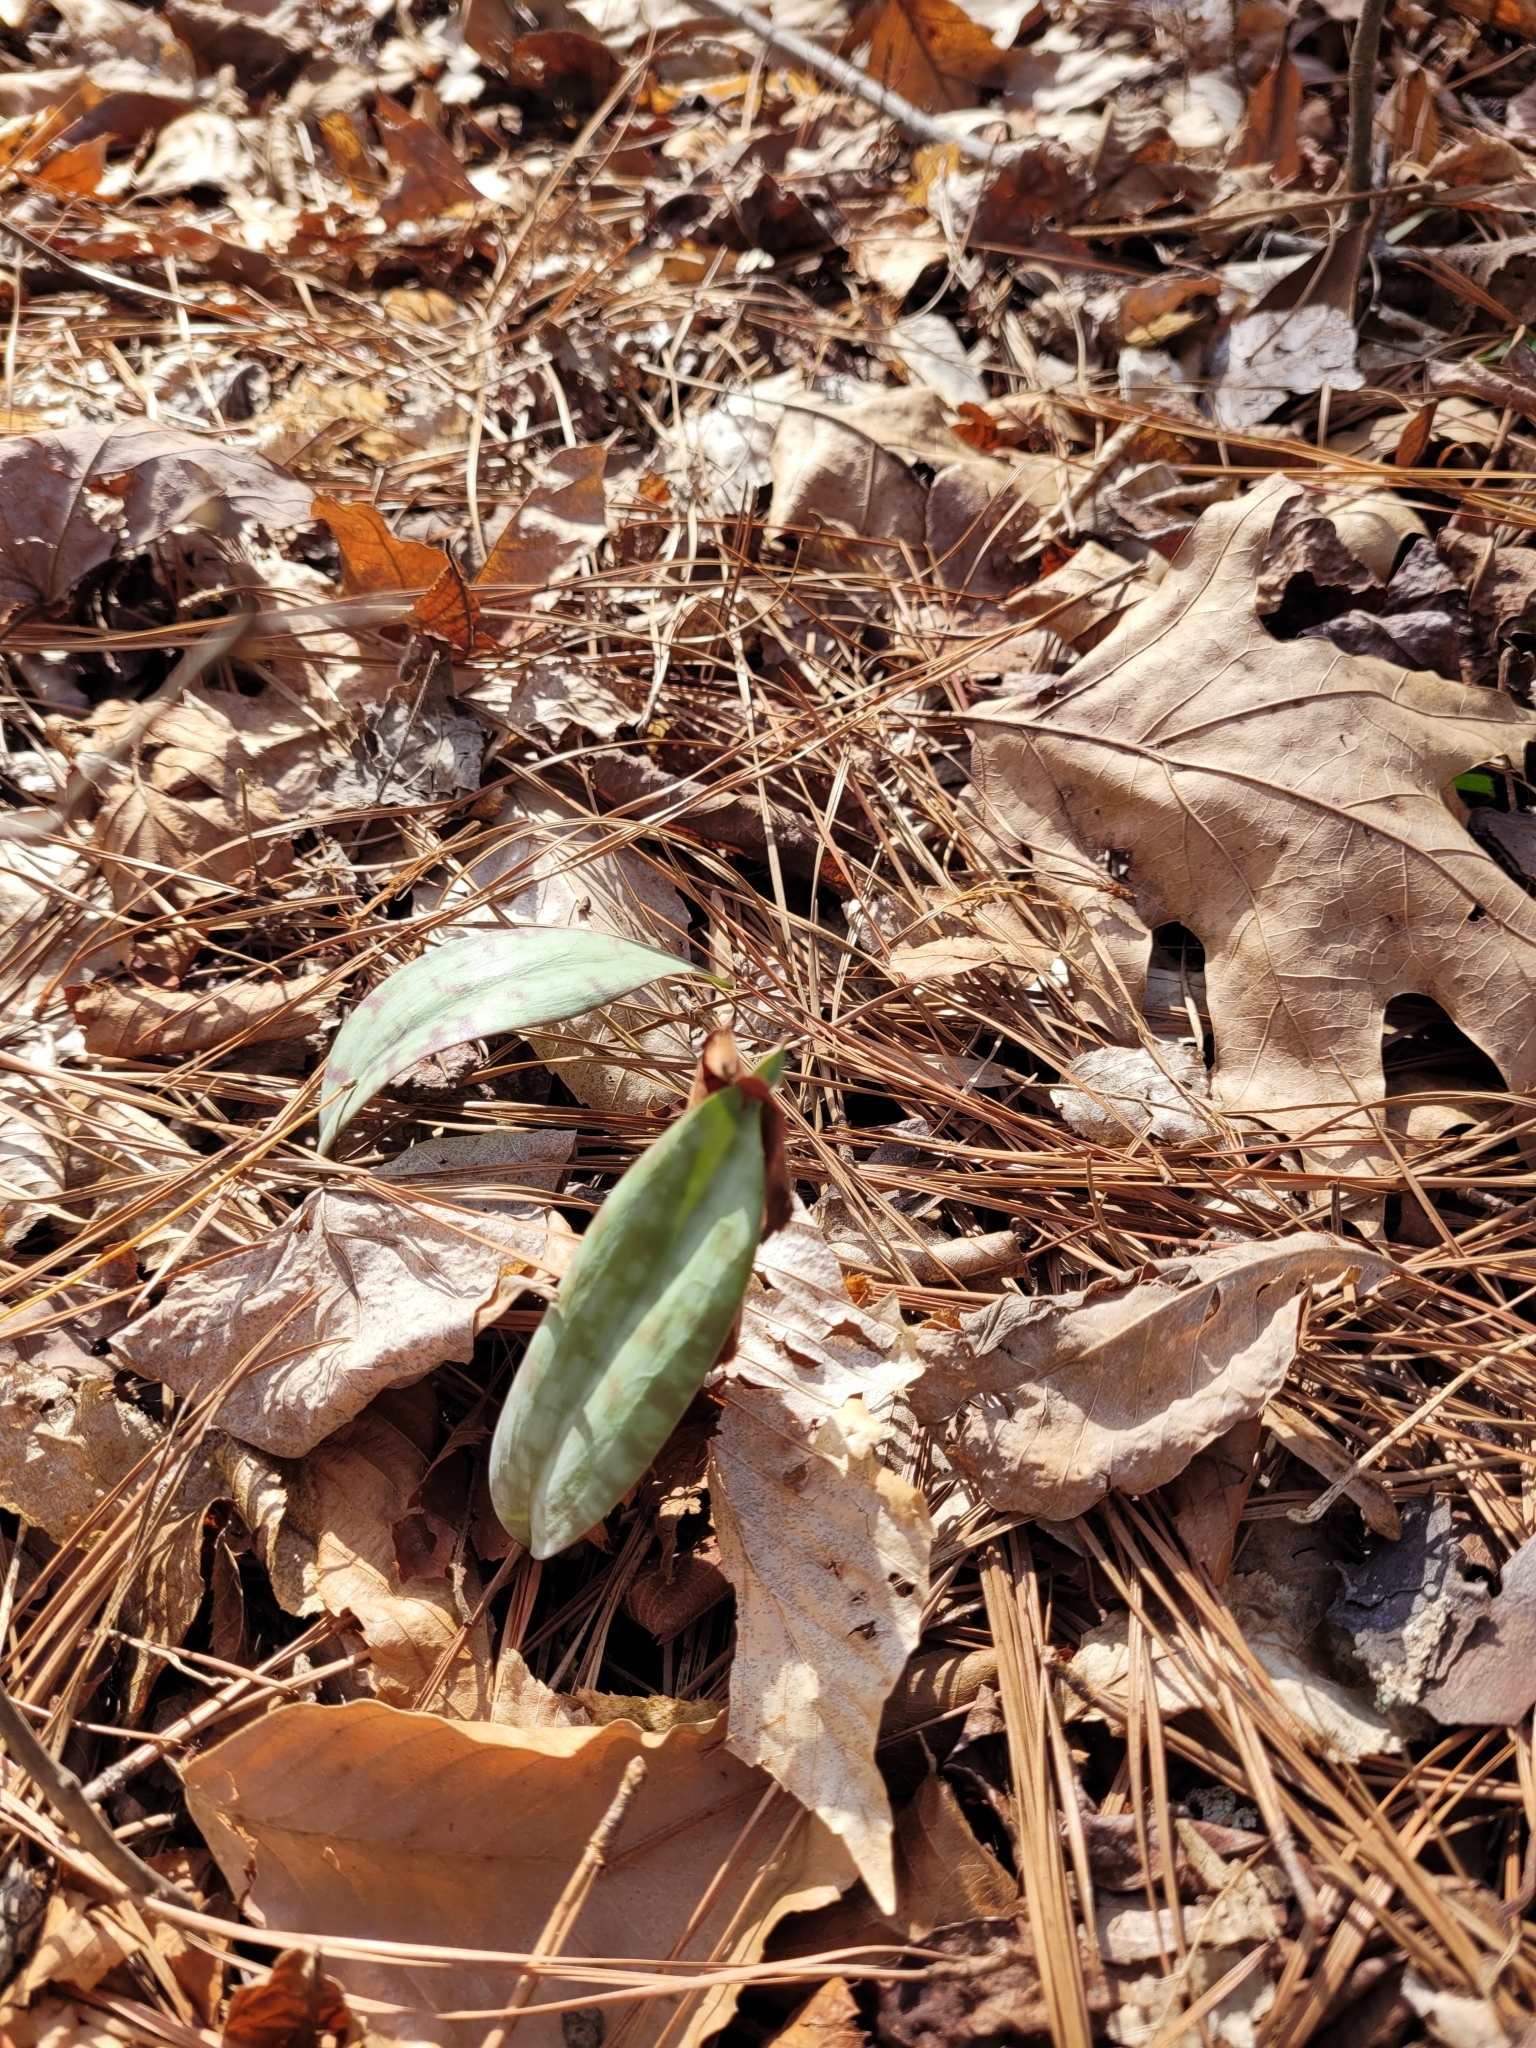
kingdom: Plantae
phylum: Tracheophyta
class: Liliopsida
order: Liliales
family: Liliaceae
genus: Erythronium
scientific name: Erythronium umbilicatum
